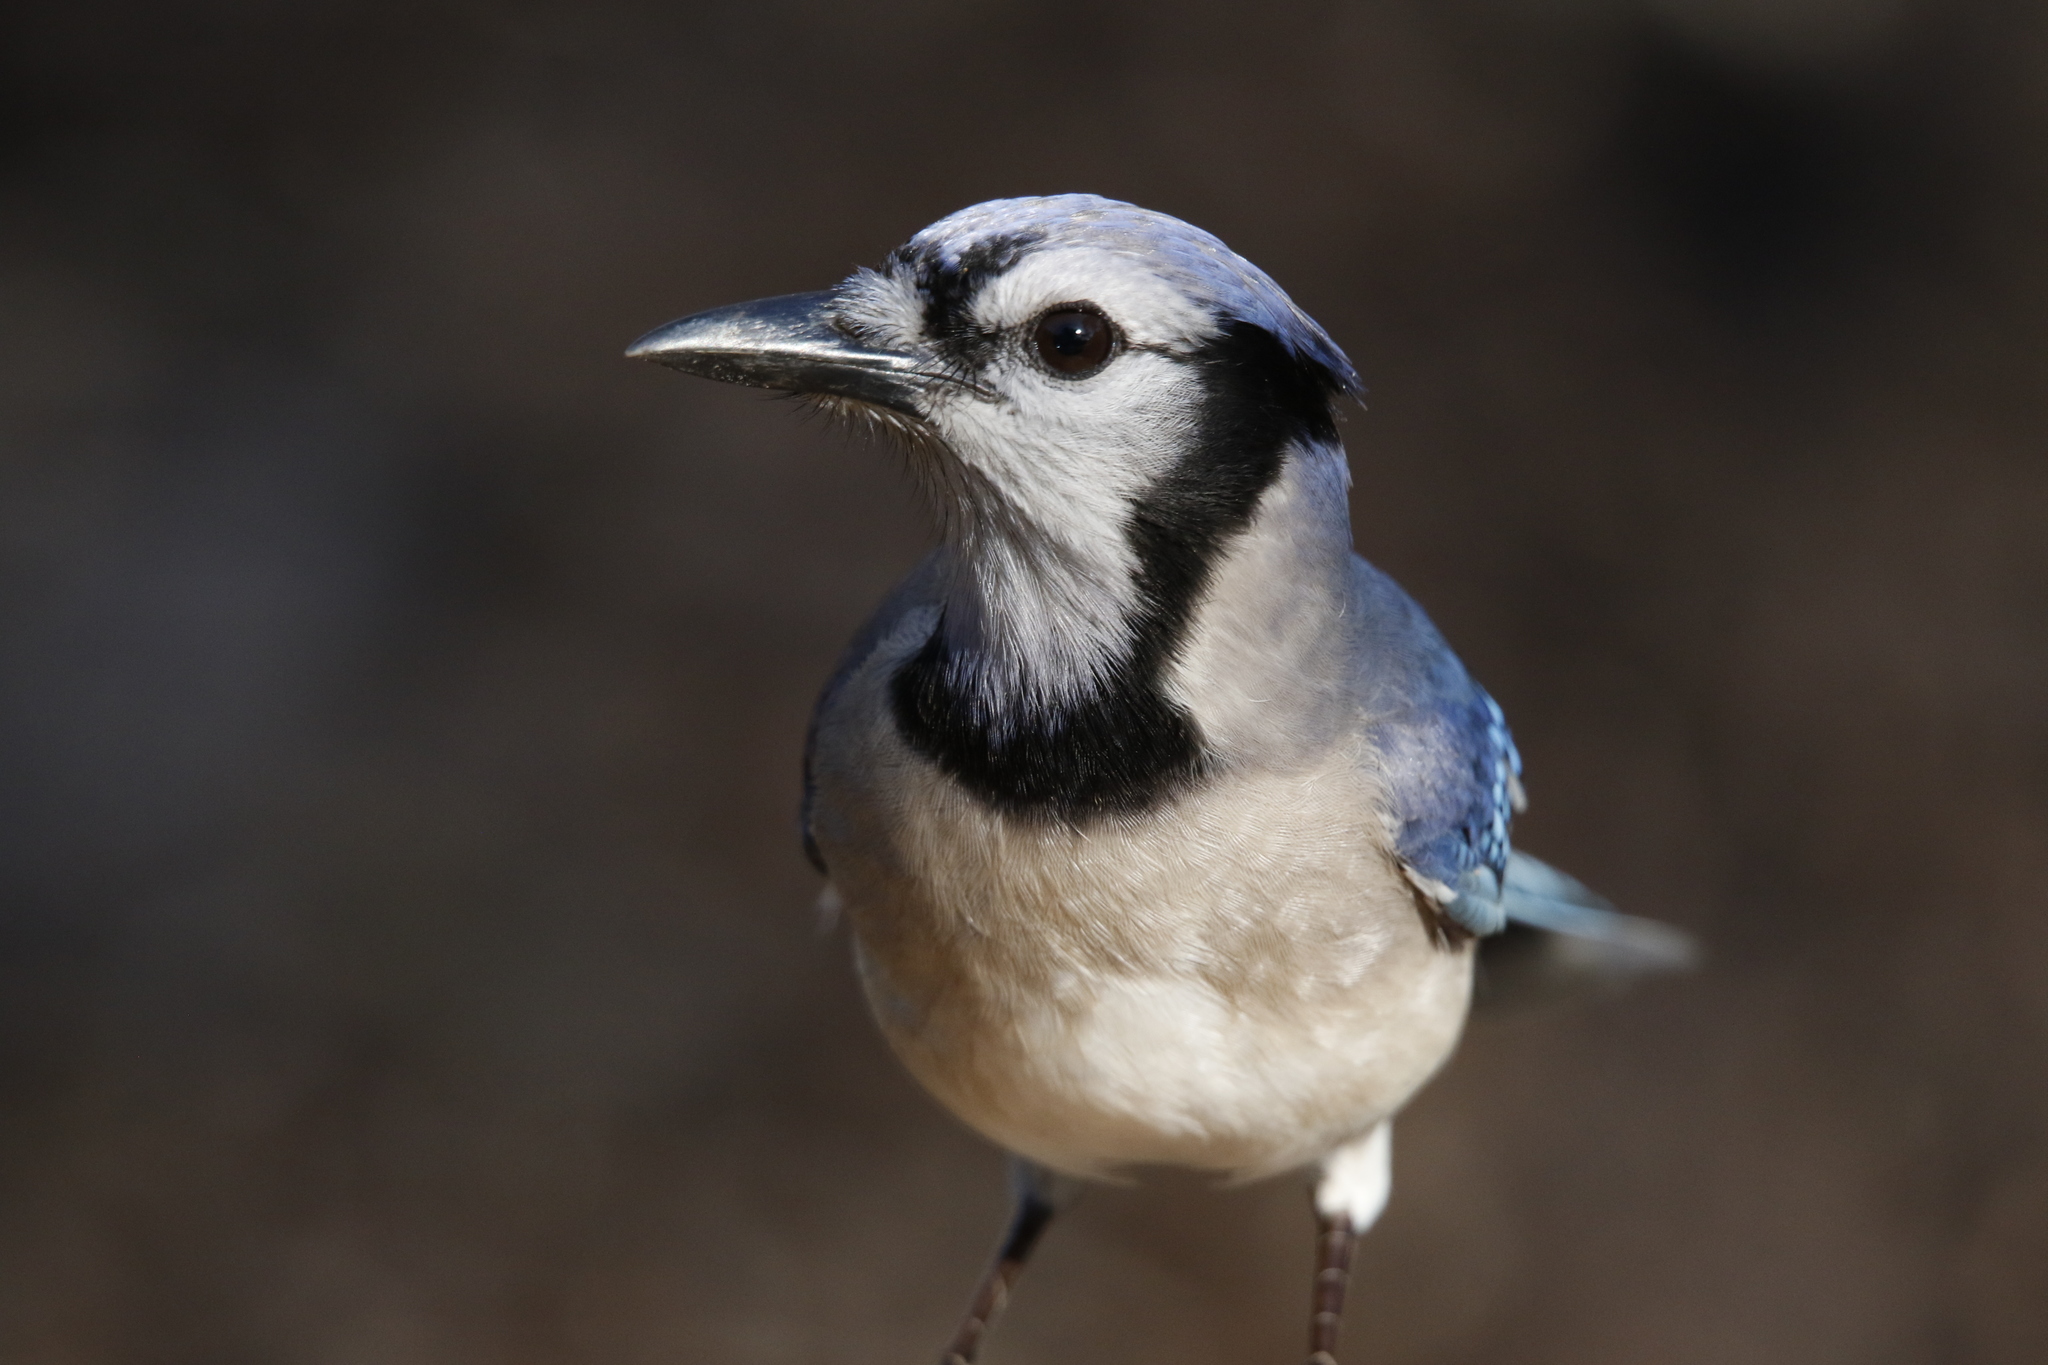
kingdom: Animalia
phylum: Chordata
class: Aves
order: Passeriformes
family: Corvidae
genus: Cyanocitta
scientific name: Cyanocitta cristata
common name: Blue jay
